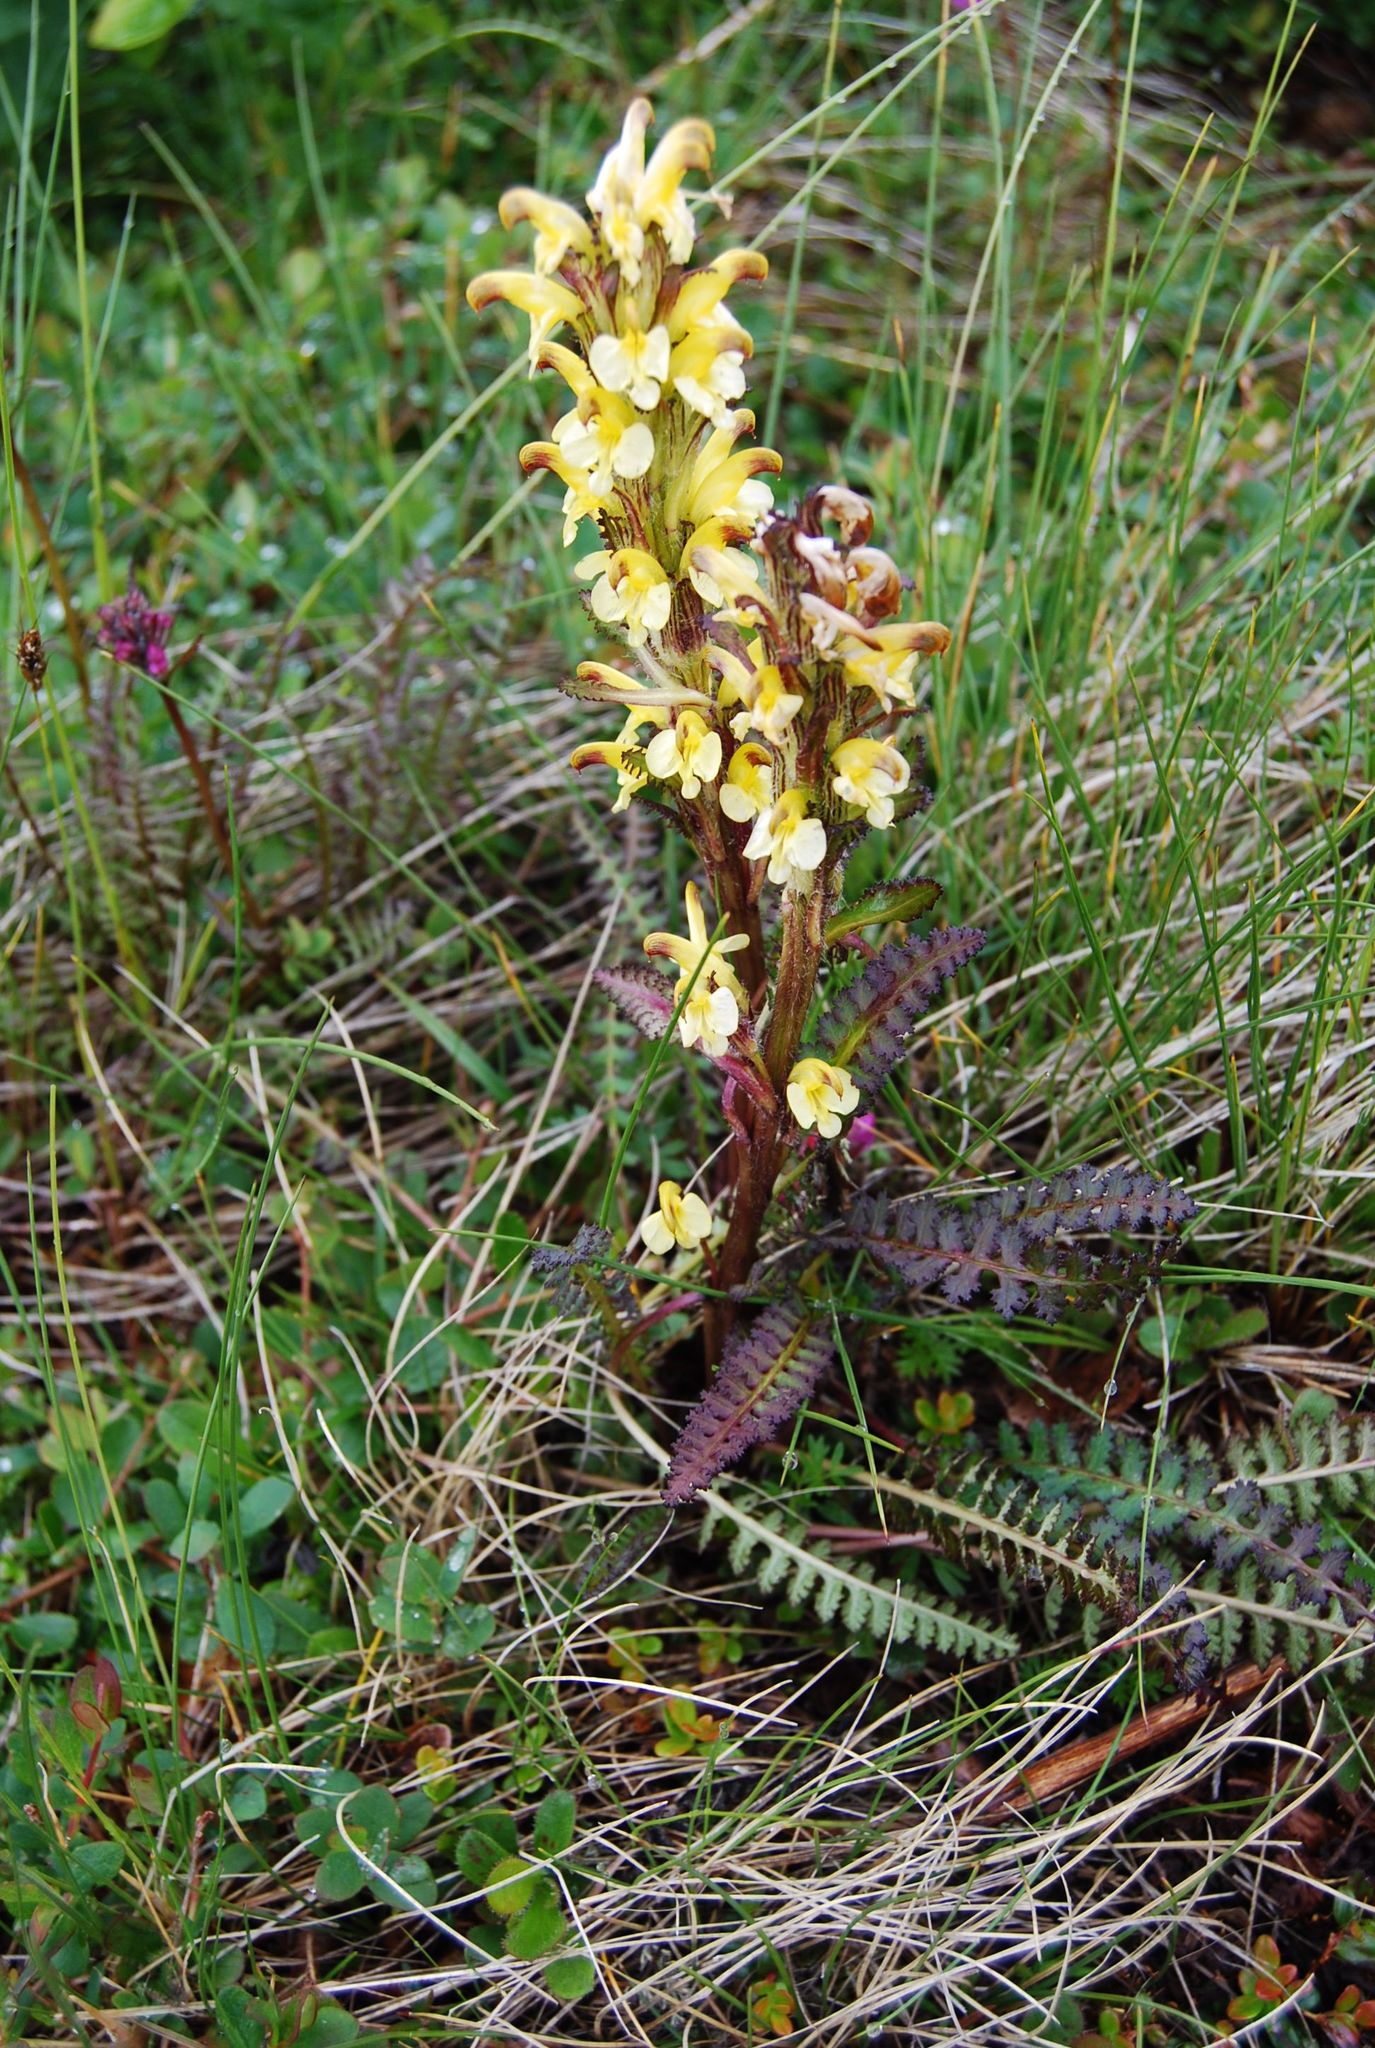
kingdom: Plantae
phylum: Tracheophyta
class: Magnoliopsida
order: Lamiales
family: Orobanchaceae
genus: Pedicularis
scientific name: Pedicularis oederi
